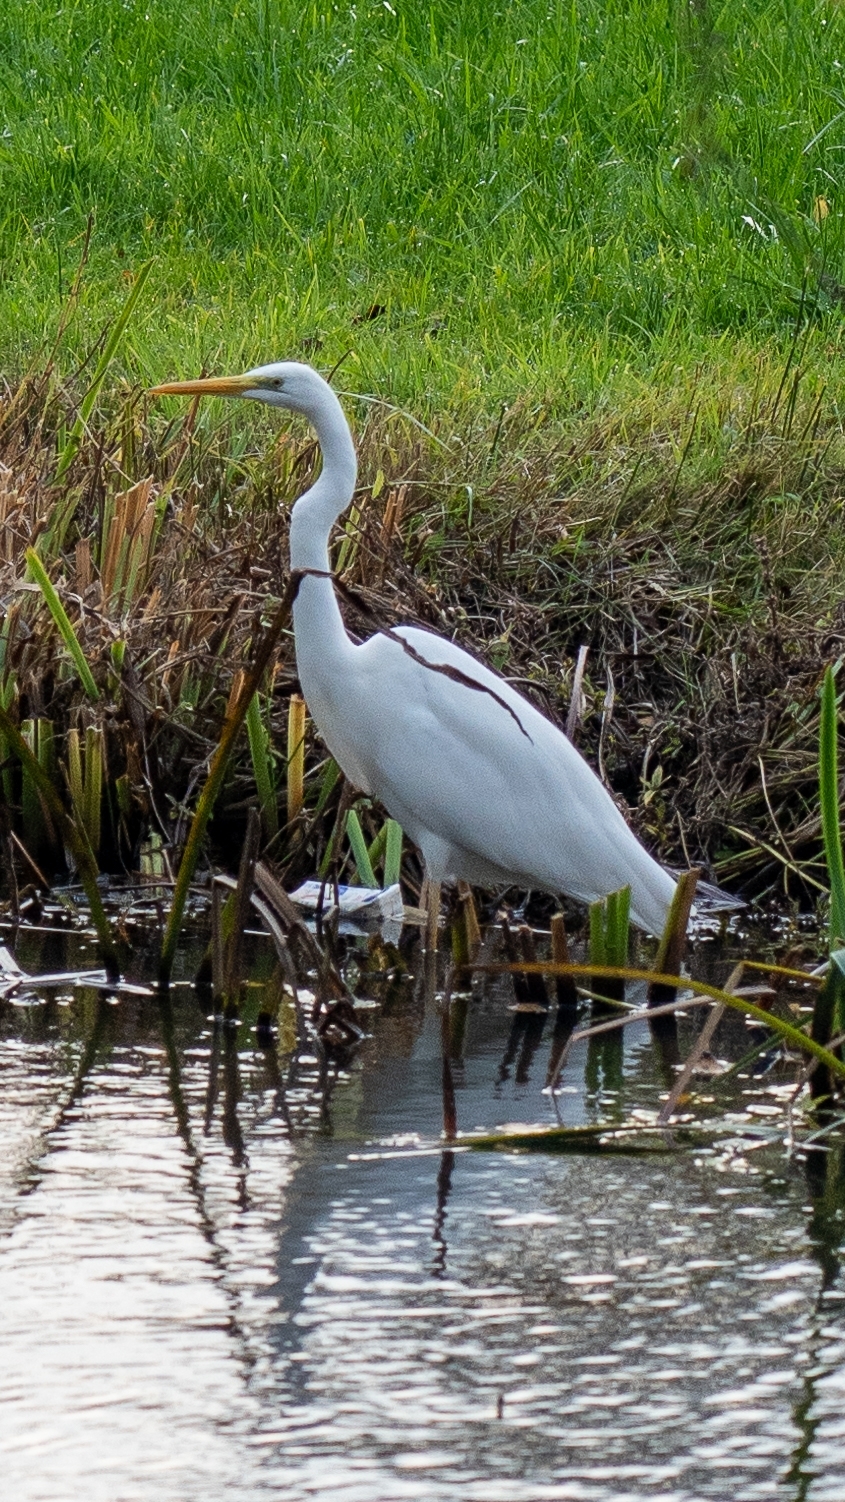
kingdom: Animalia
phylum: Chordata
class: Aves
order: Pelecaniformes
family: Ardeidae
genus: Ardea
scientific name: Ardea alba
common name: Great egret
